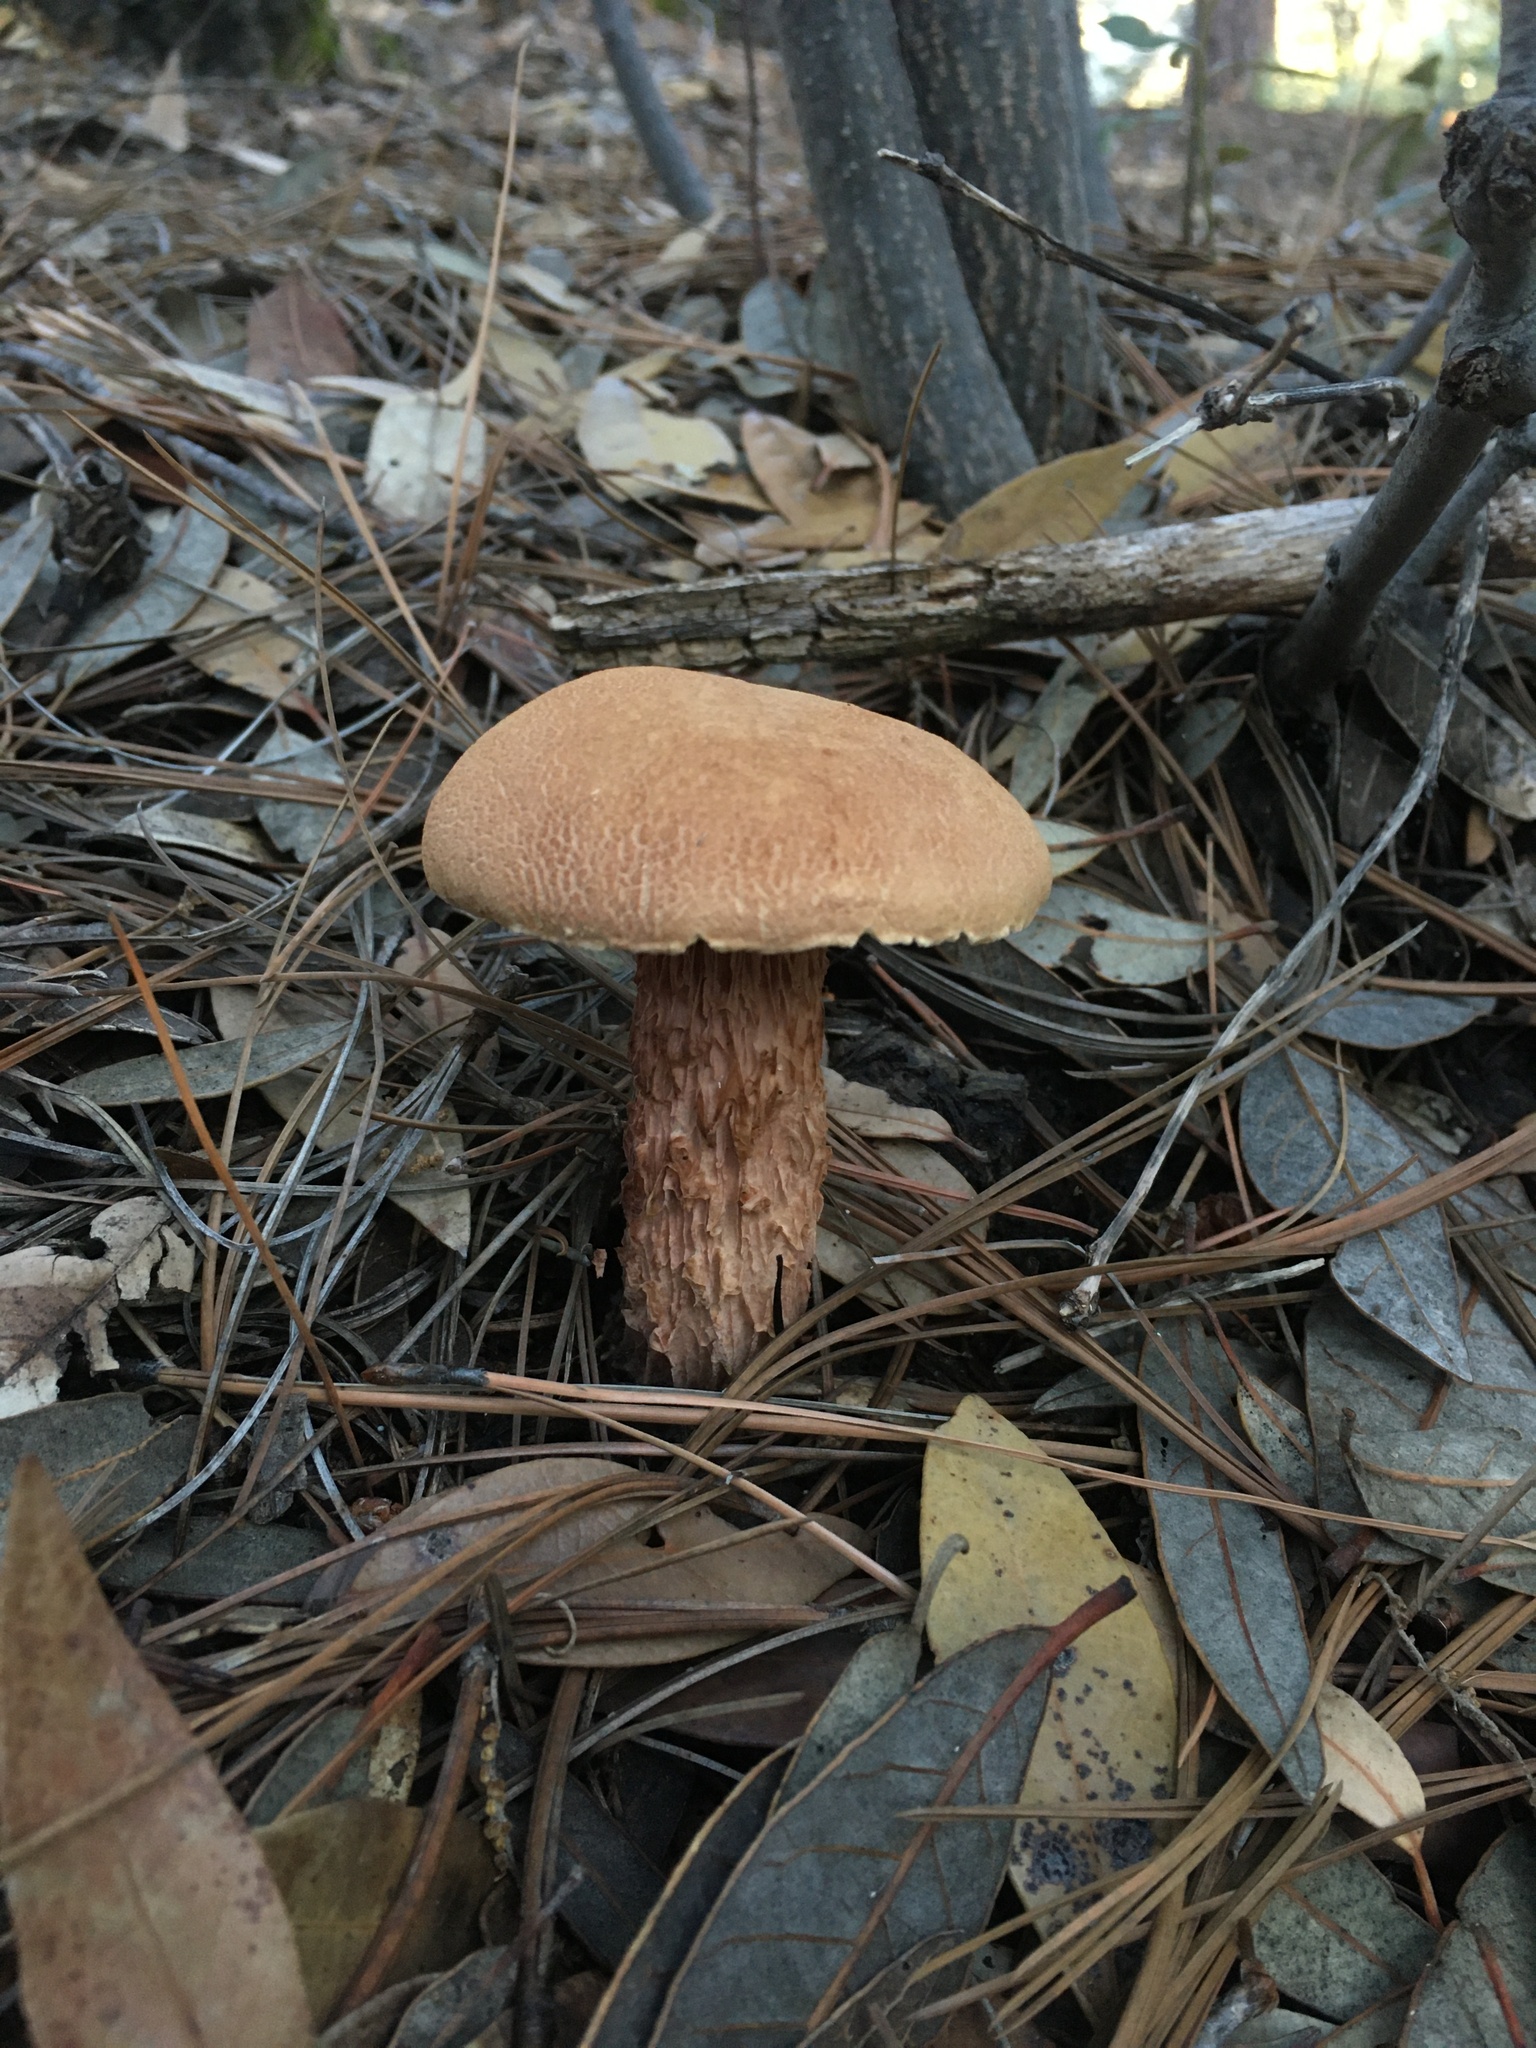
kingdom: Fungi
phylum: Basidiomycota
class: Agaricomycetes
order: Boletales
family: Boletaceae
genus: Aureoboletus
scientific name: Aureoboletus russellii
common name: Russell's bolete
